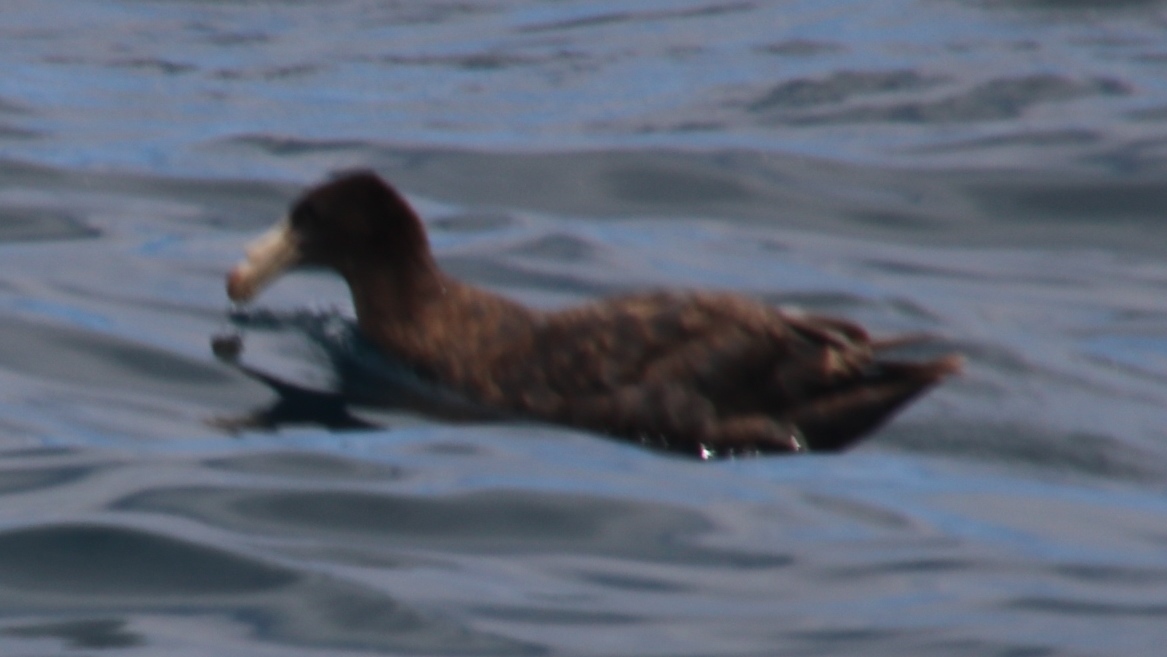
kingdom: Animalia
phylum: Chordata
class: Aves
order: Procellariiformes
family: Procellariidae
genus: Macronectes
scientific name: Macronectes halli
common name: Northern giant petrel
